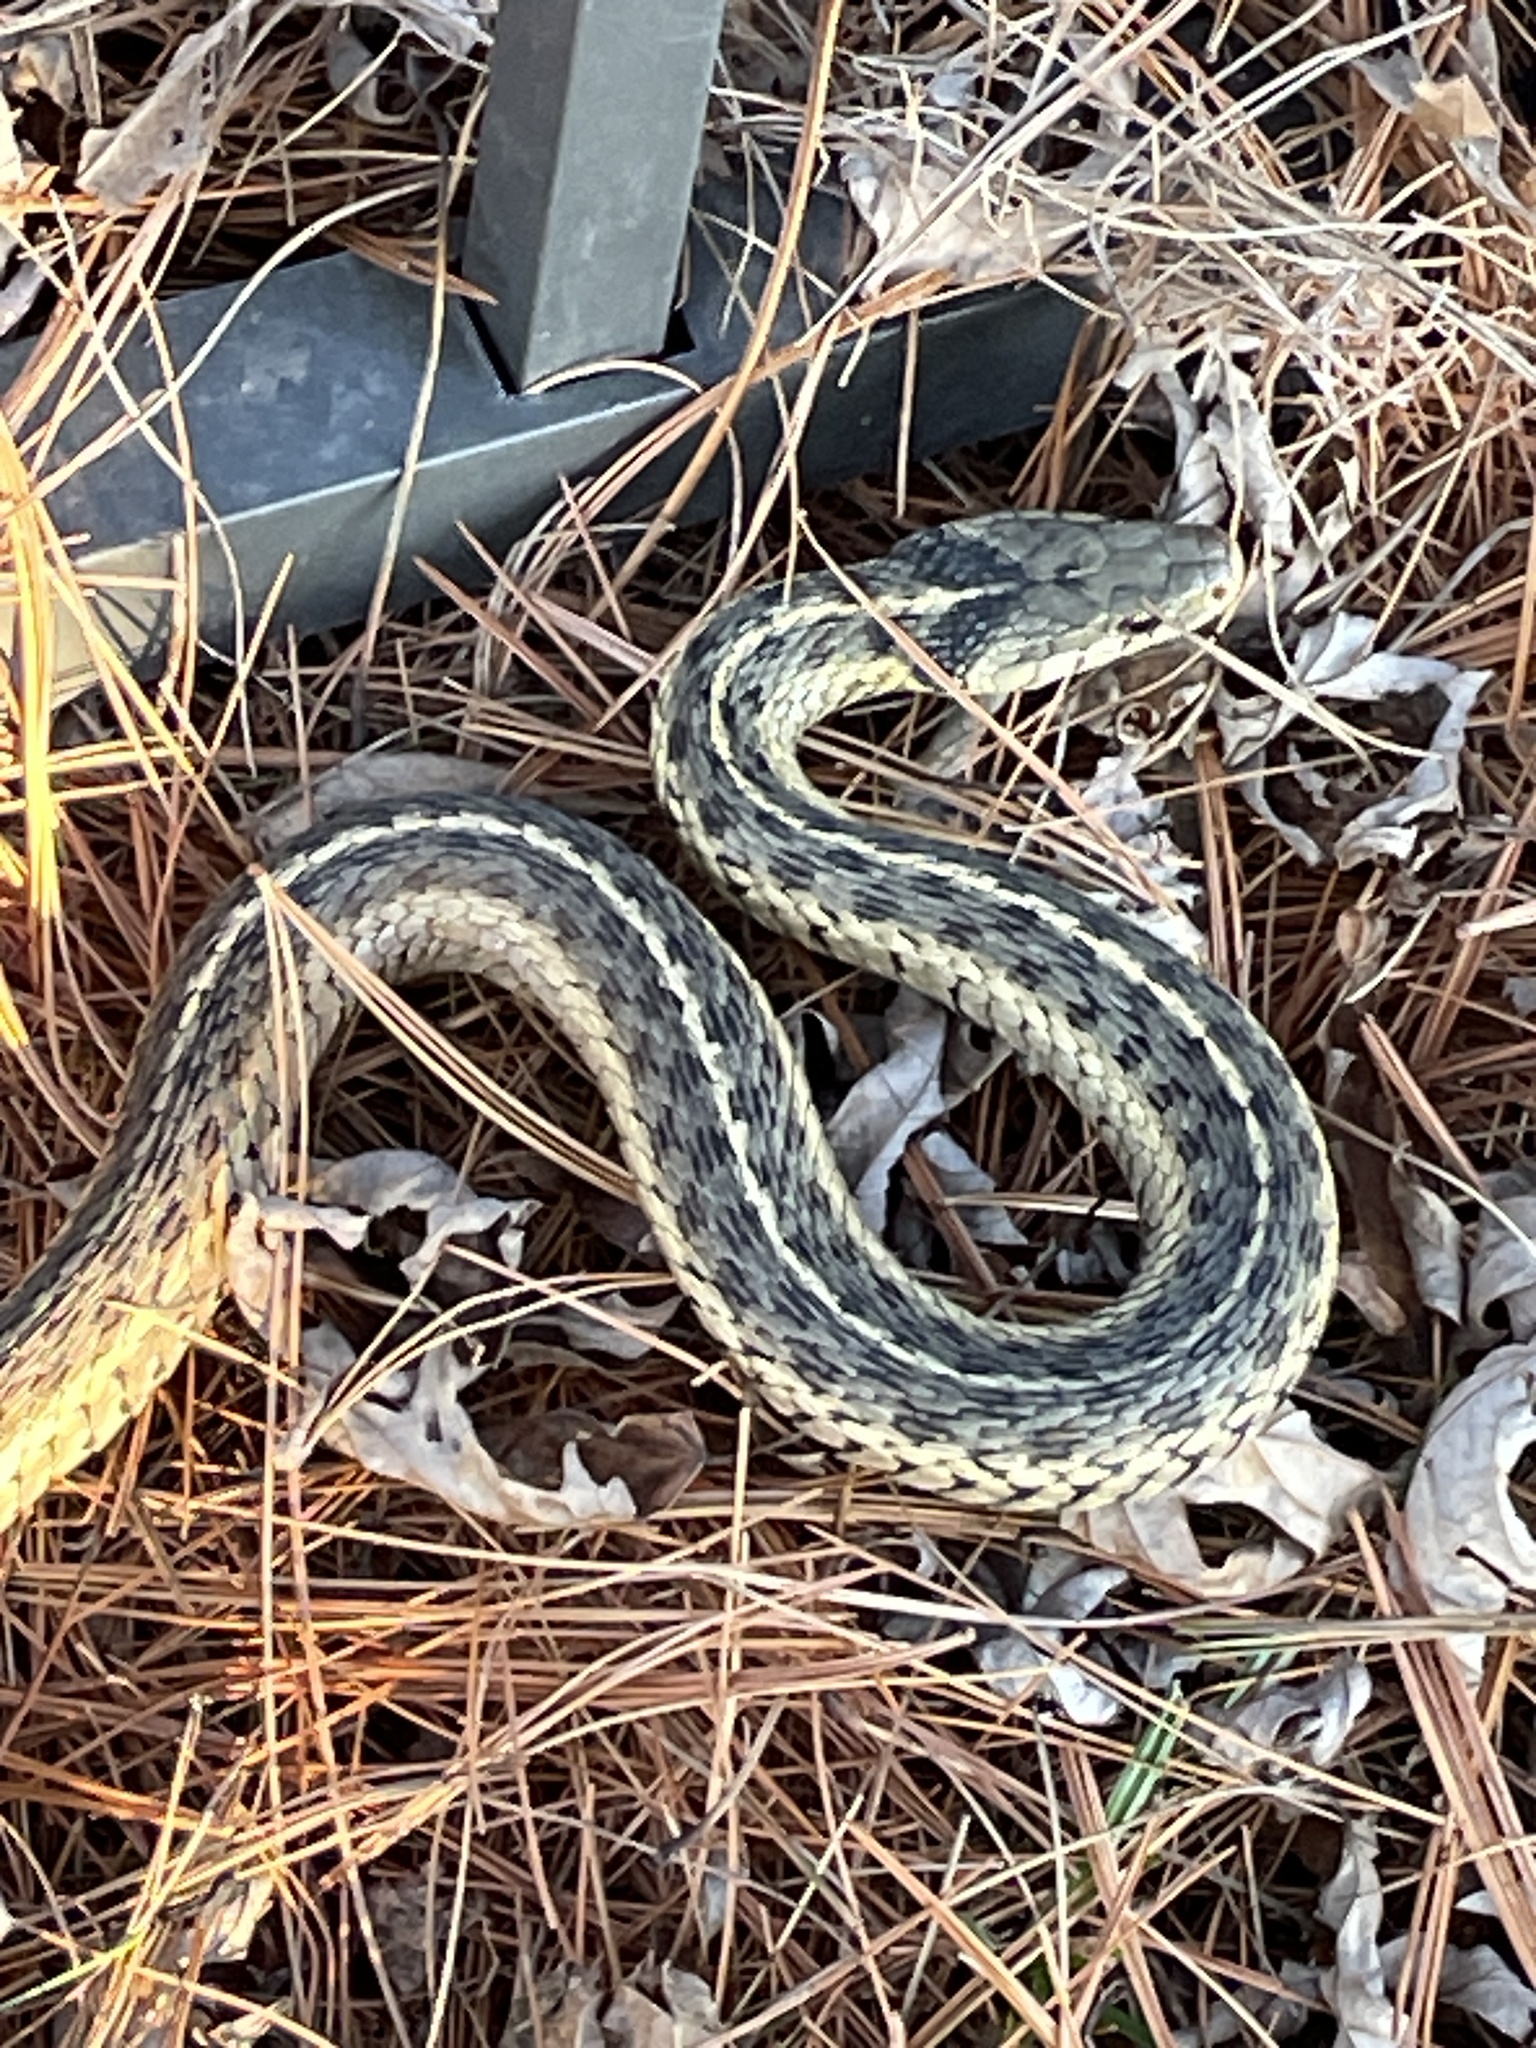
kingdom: Animalia
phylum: Chordata
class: Squamata
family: Colubridae
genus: Thamnophis
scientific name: Thamnophis sirtalis
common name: Common garter snake
